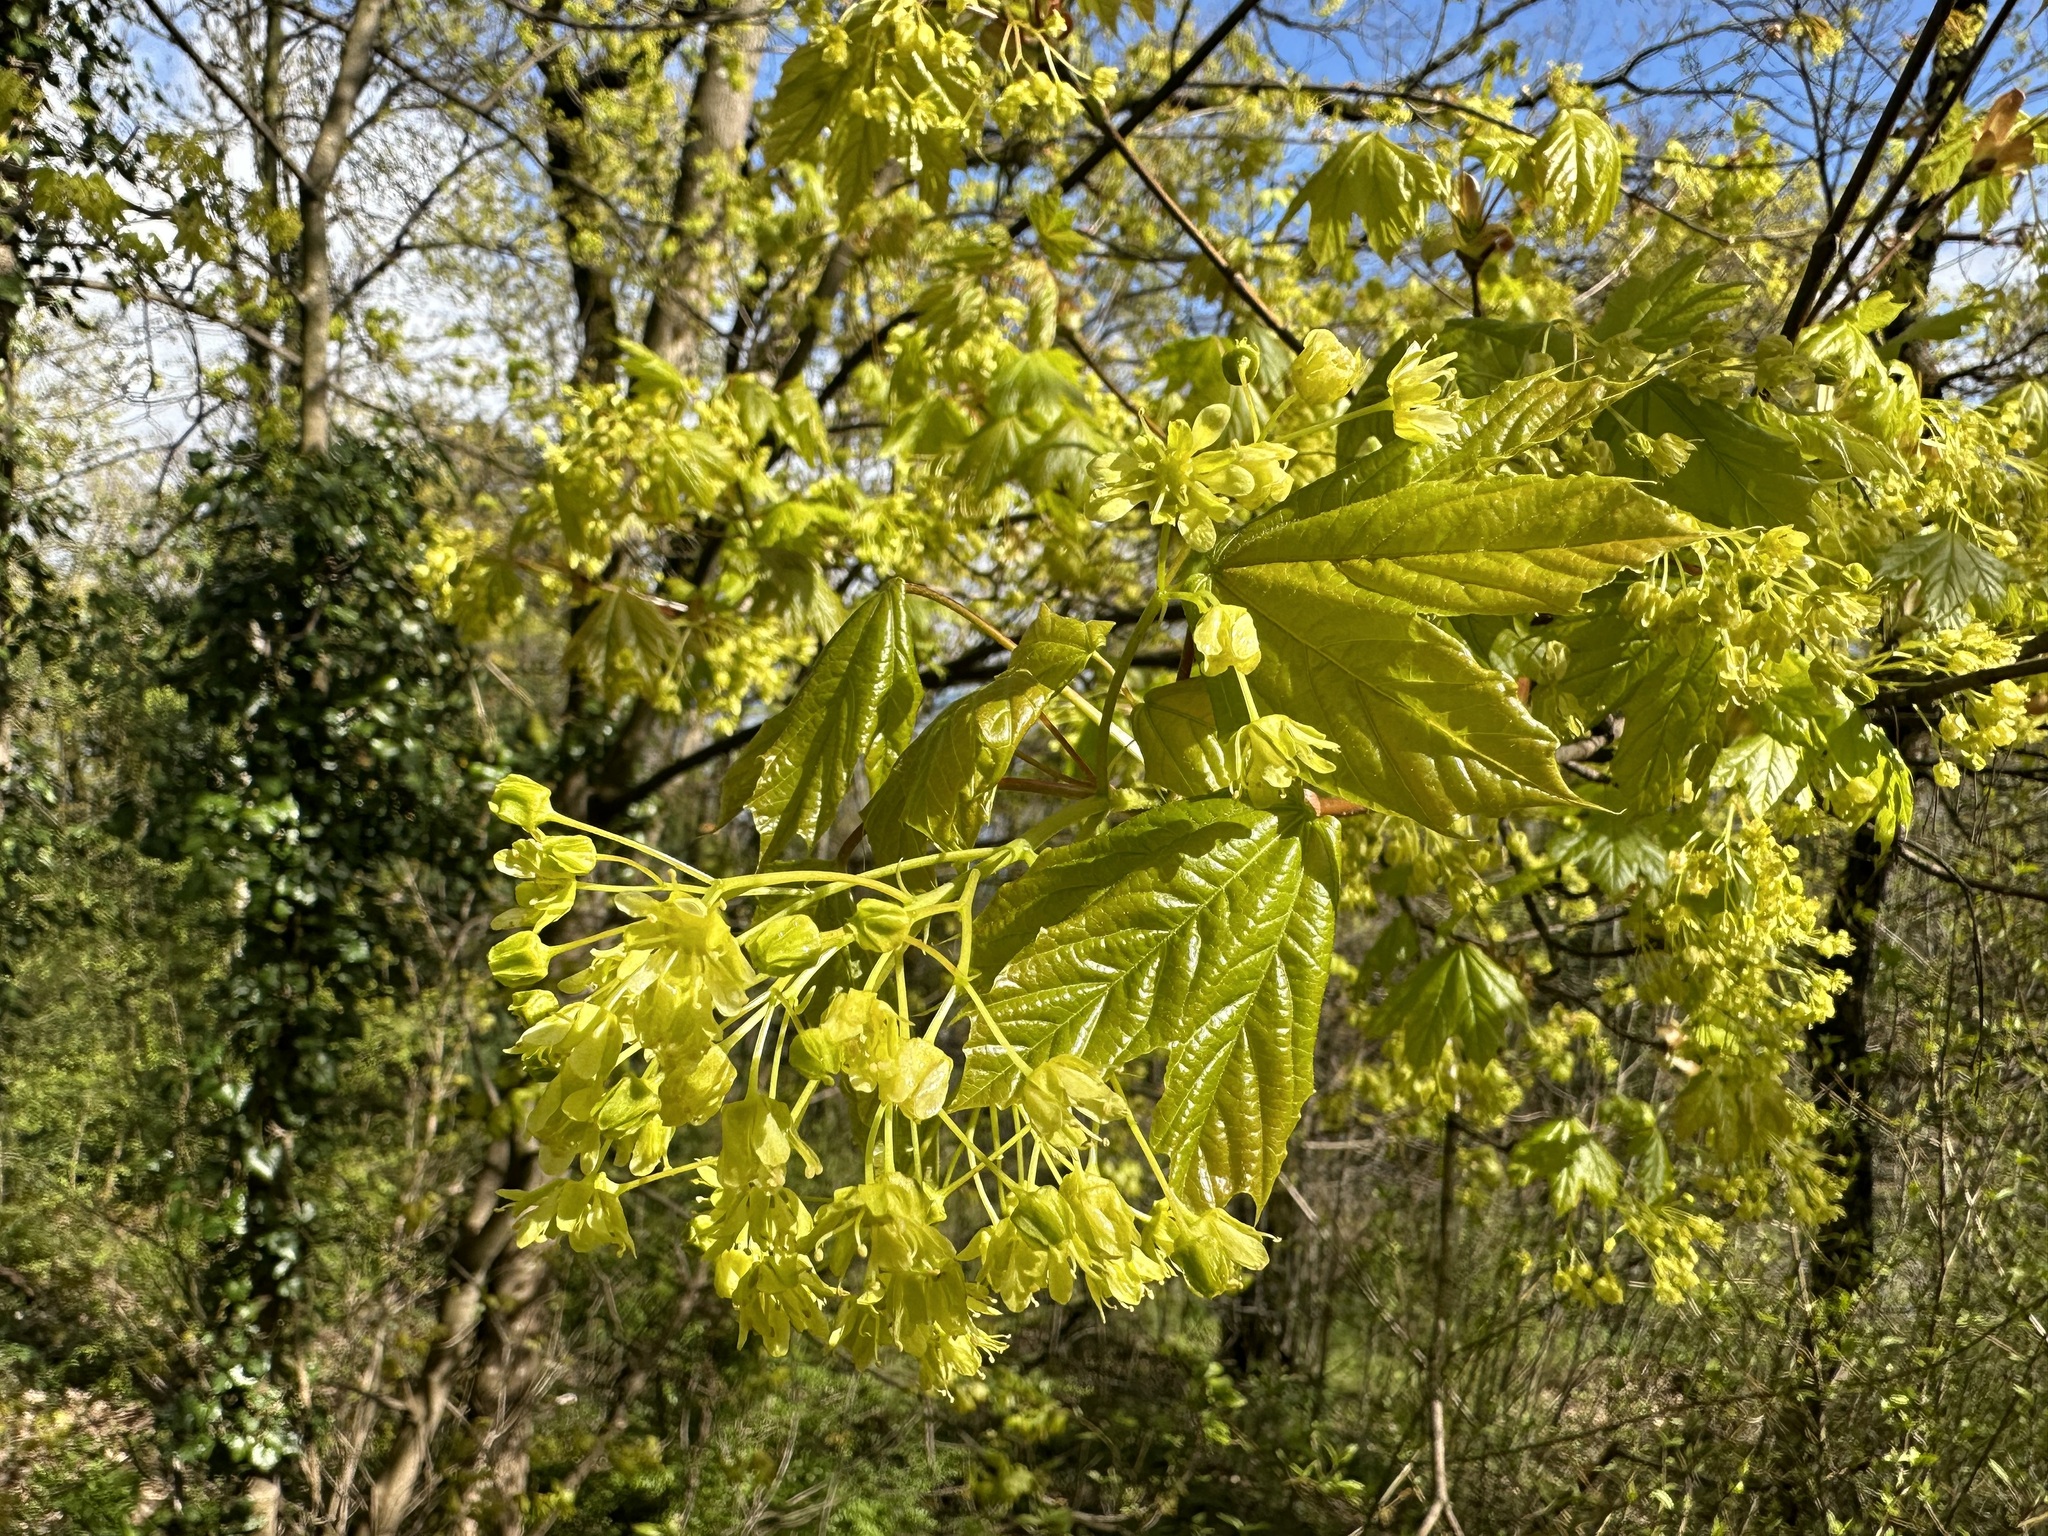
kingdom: Plantae
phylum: Tracheophyta
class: Magnoliopsida
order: Sapindales
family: Sapindaceae
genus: Acer
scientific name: Acer platanoides
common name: Norway maple
